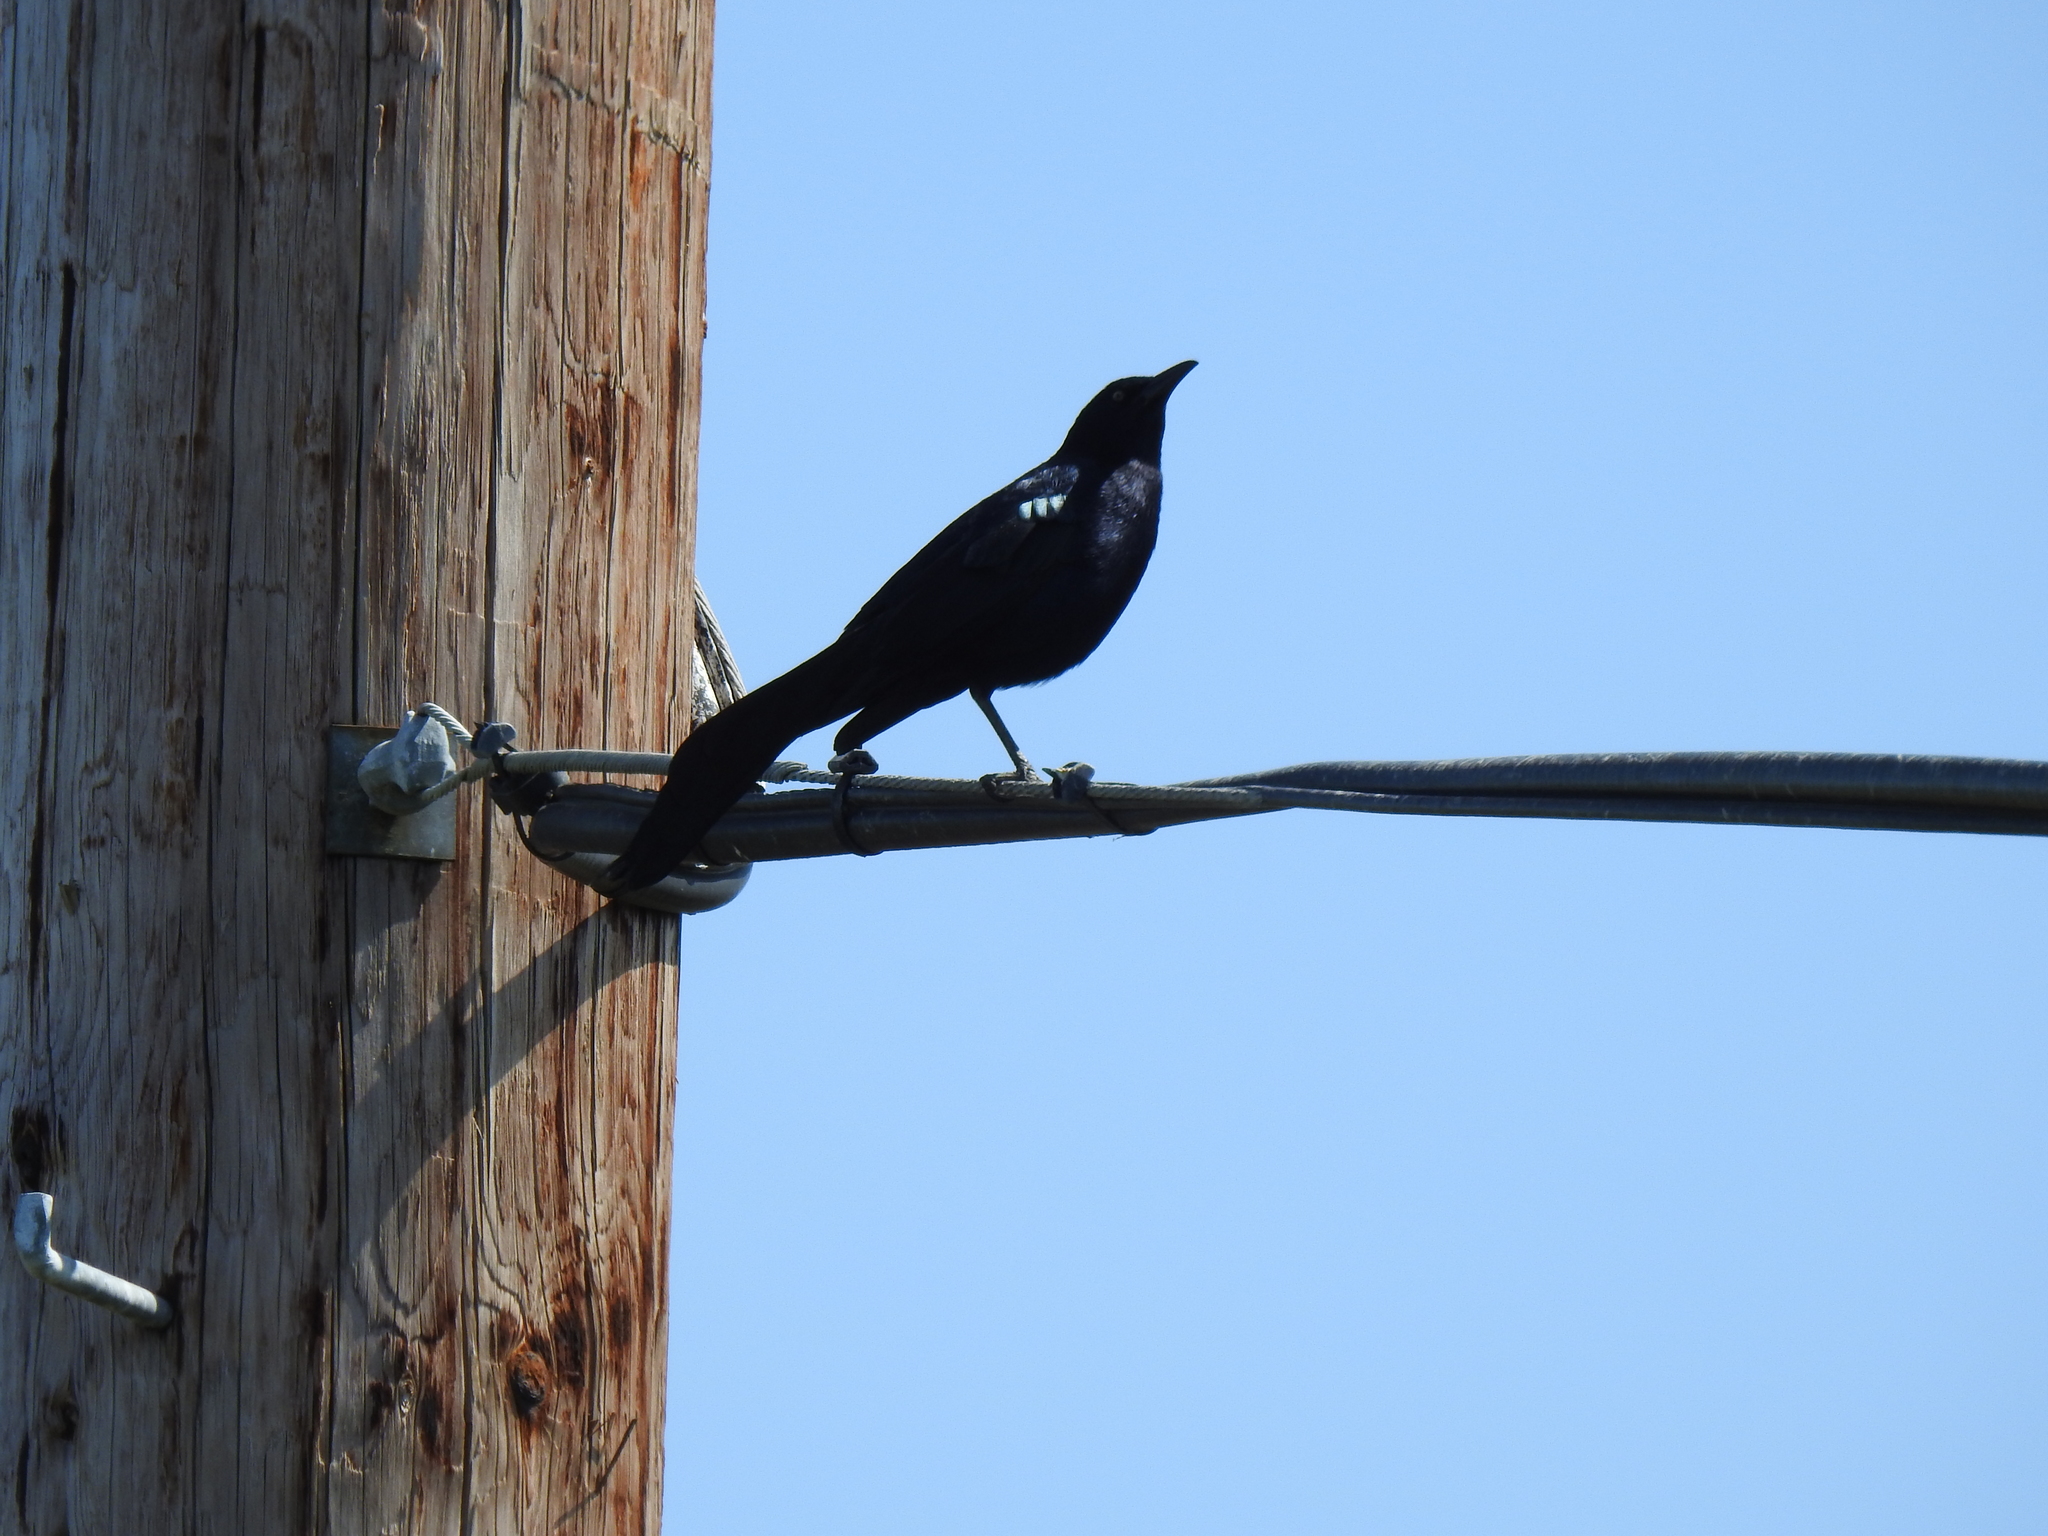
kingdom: Animalia
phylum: Chordata
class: Aves
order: Passeriformes
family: Icteridae
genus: Quiscalus
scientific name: Quiscalus mexicanus
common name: Great-tailed grackle
